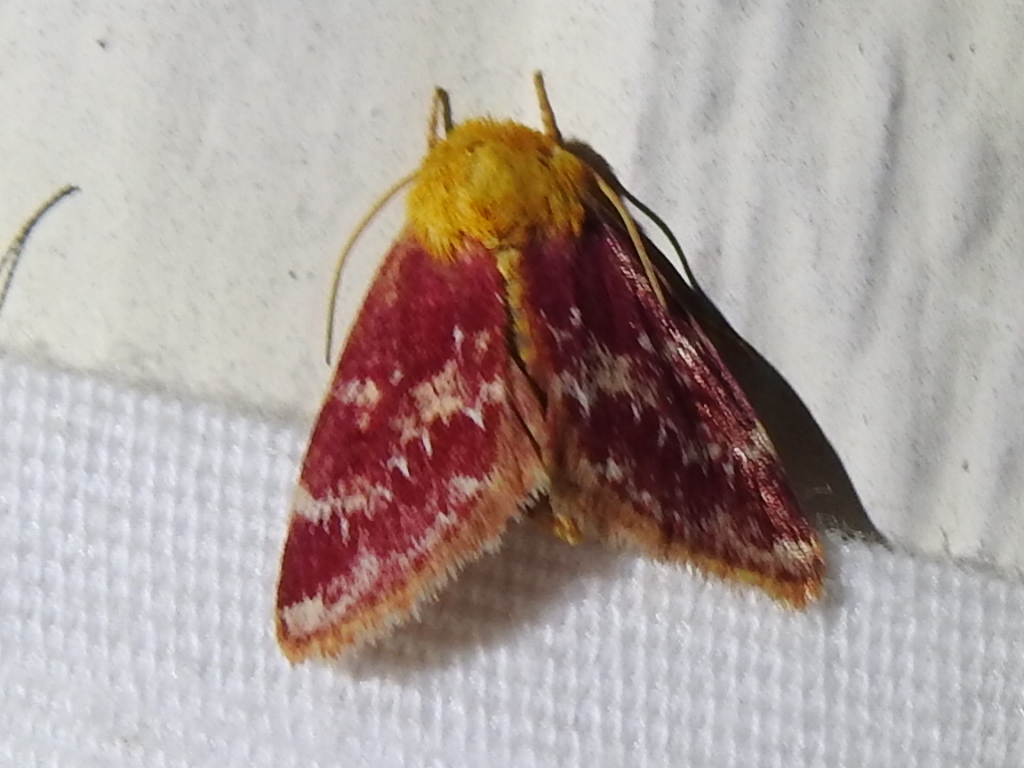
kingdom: Animalia
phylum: Arthropoda
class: Insecta
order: Lepidoptera
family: Noctuidae
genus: Schinia
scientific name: Schinia volupia
